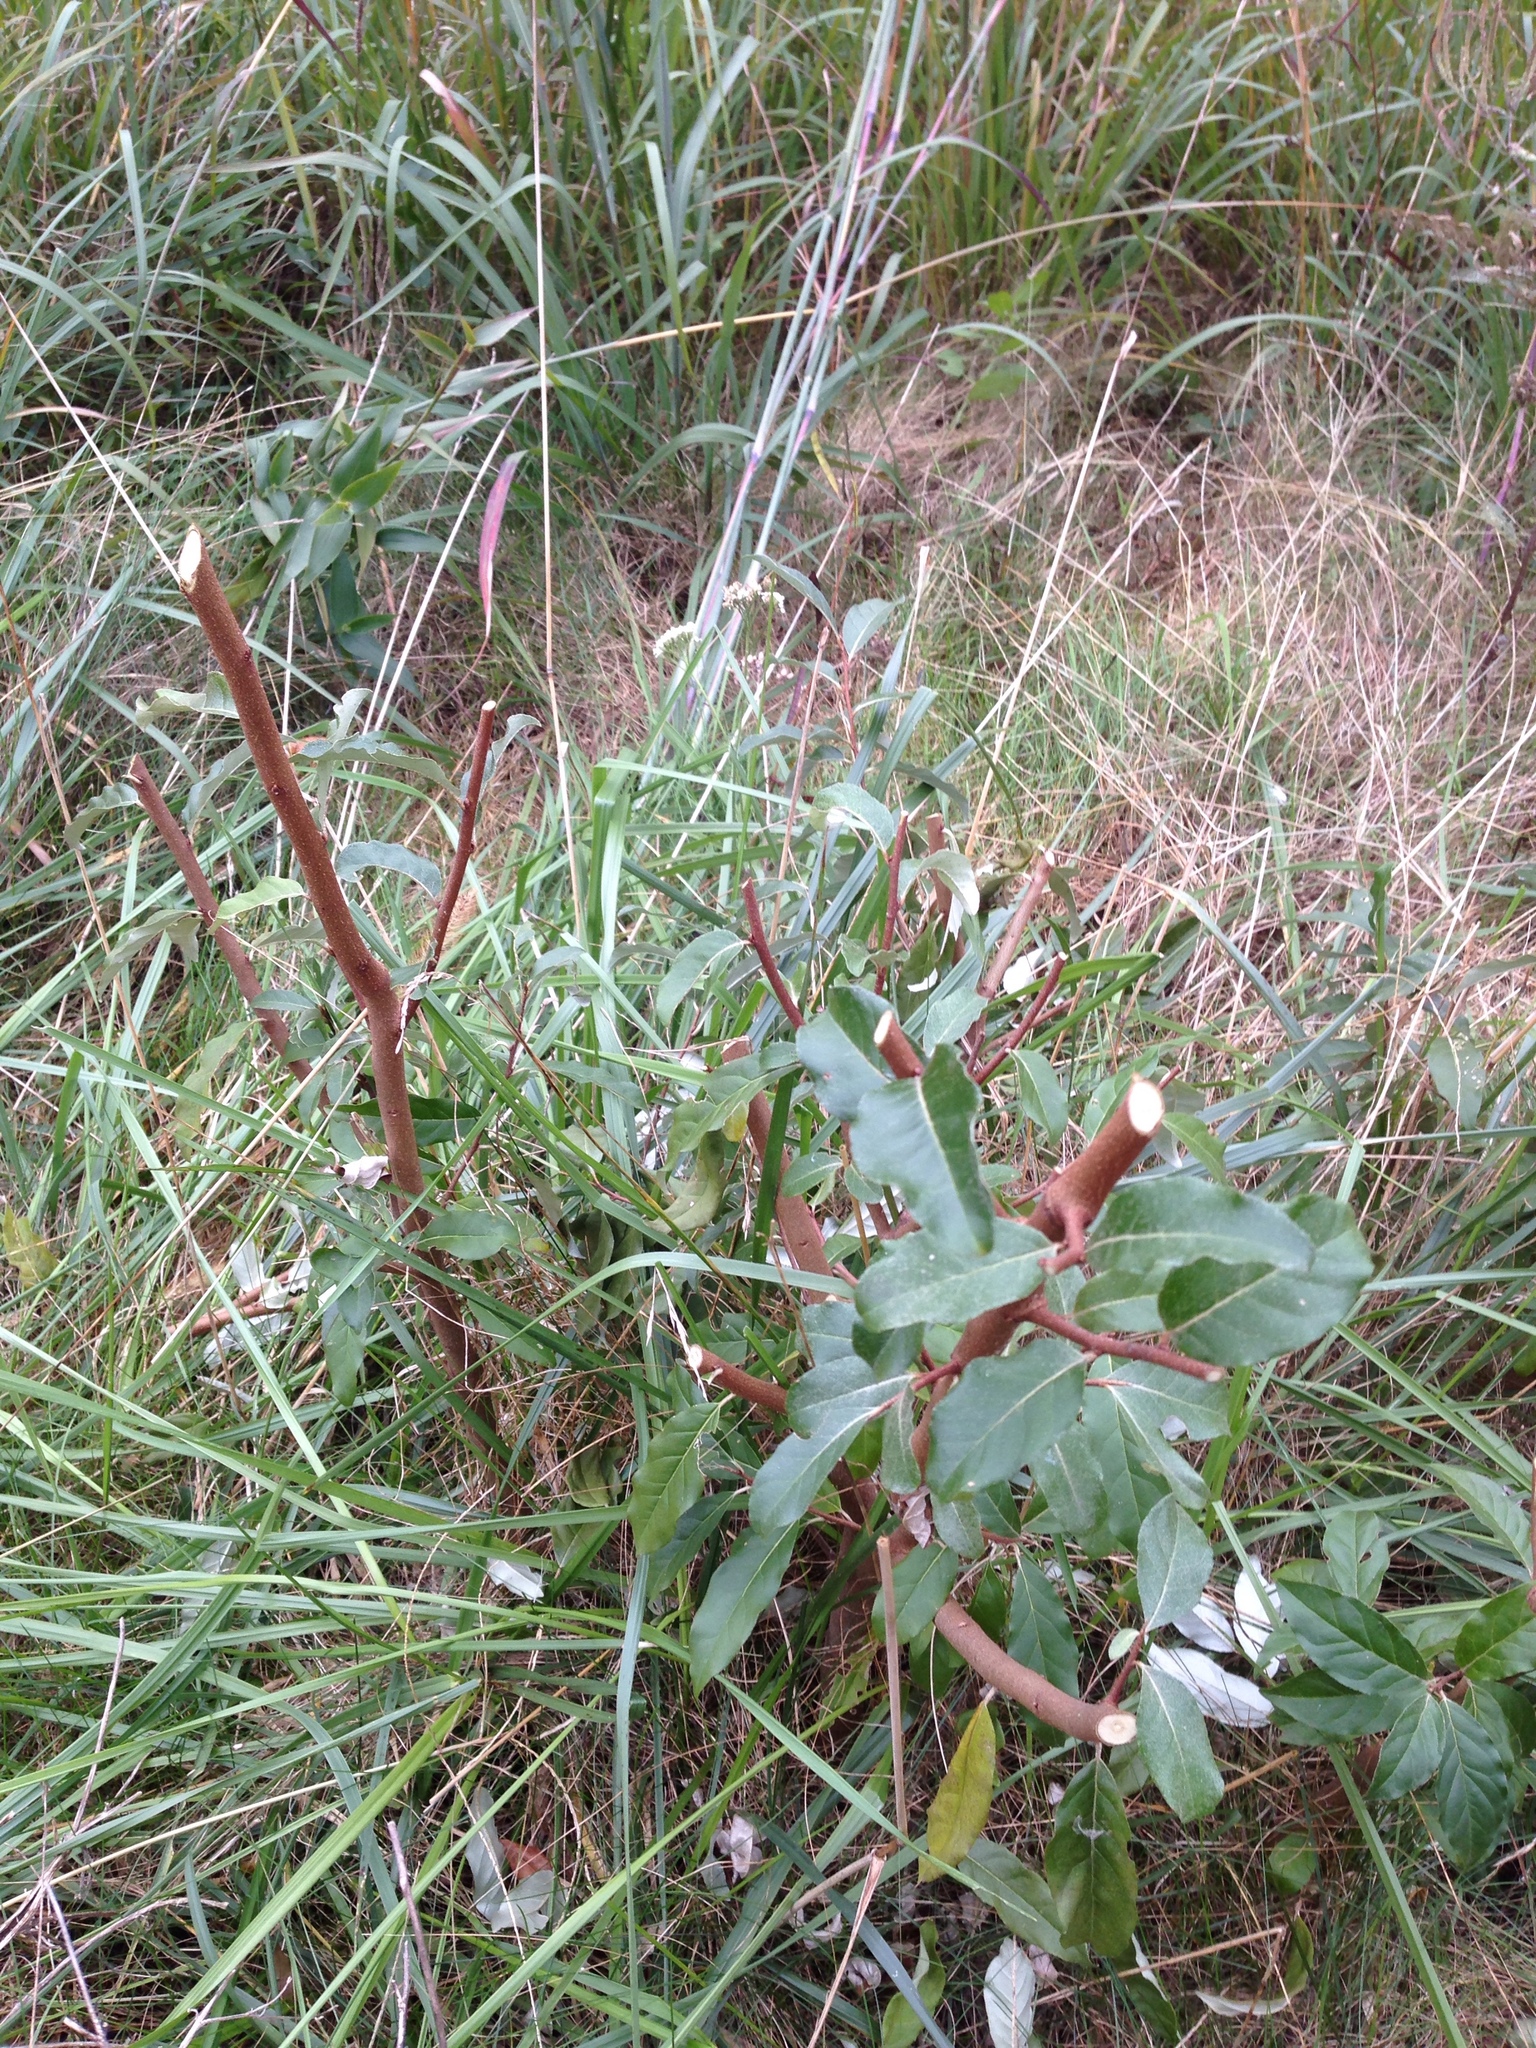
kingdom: Plantae
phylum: Tracheophyta
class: Magnoliopsida
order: Rosales
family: Elaeagnaceae
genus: Elaeagnus
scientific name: Elaeagnus umbellata
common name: Autumn olive
